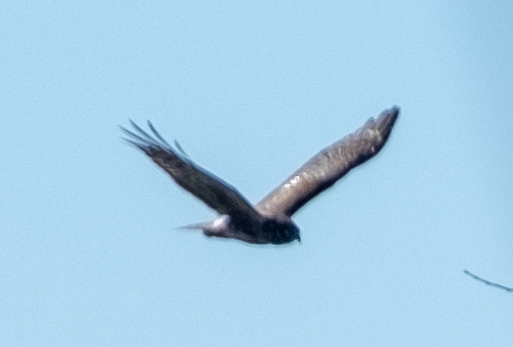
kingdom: Animalia
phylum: Chordata
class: Aves
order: Accipitriformes
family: Accipitridae
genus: Circus
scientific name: Circus cyaneus
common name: Hen harrier
